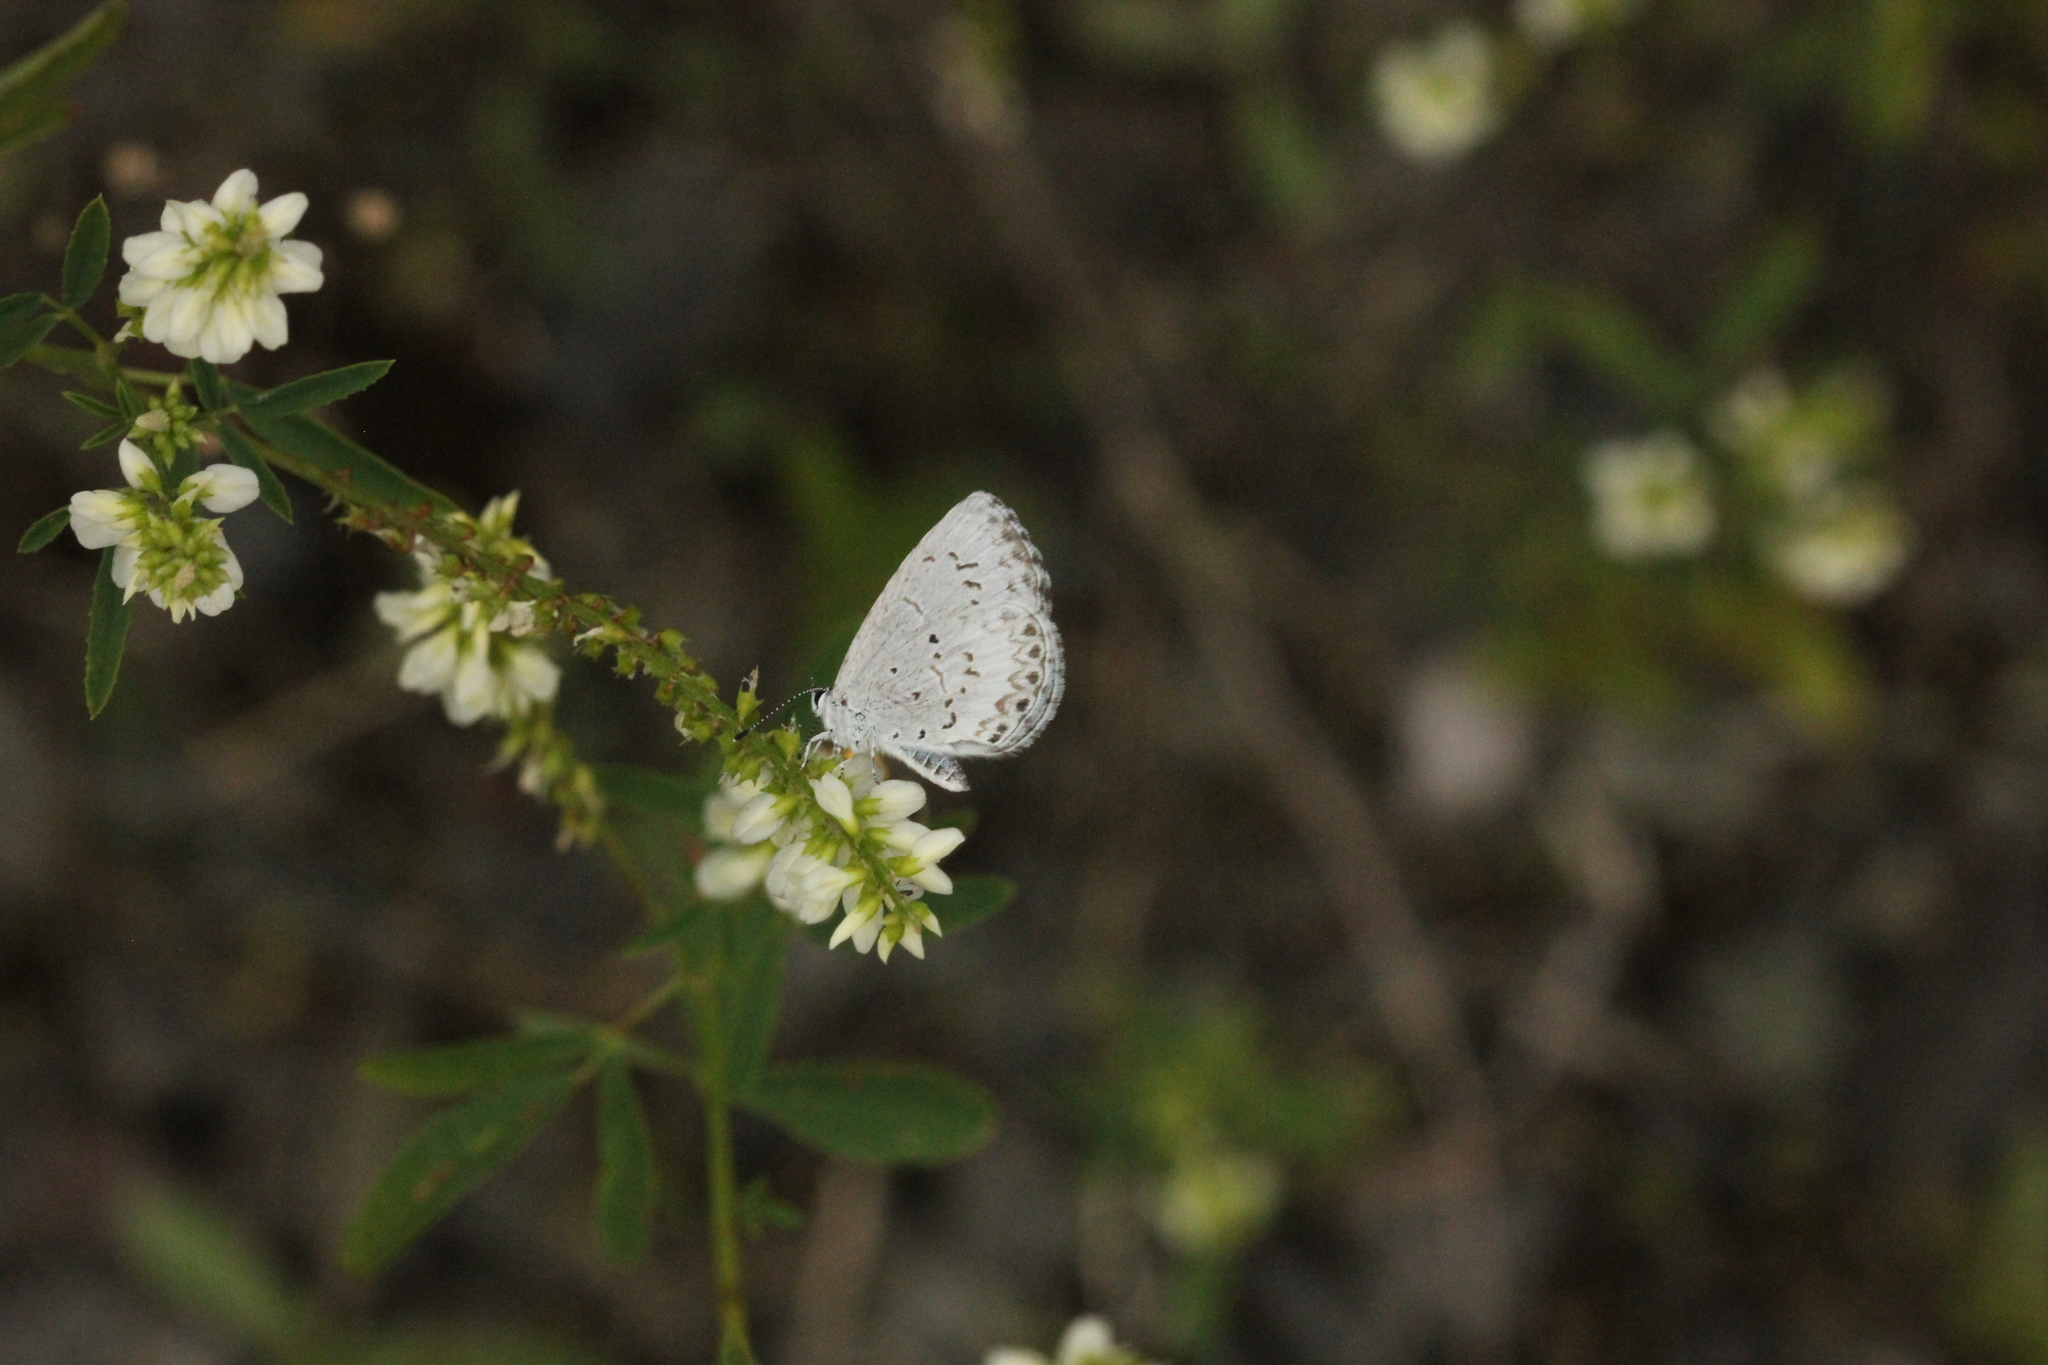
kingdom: Animalia
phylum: Arthropoda
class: Insecta
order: Lepidoptera
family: Lycaenidae
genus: Cyaniris
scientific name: Cyaniris neglecta
